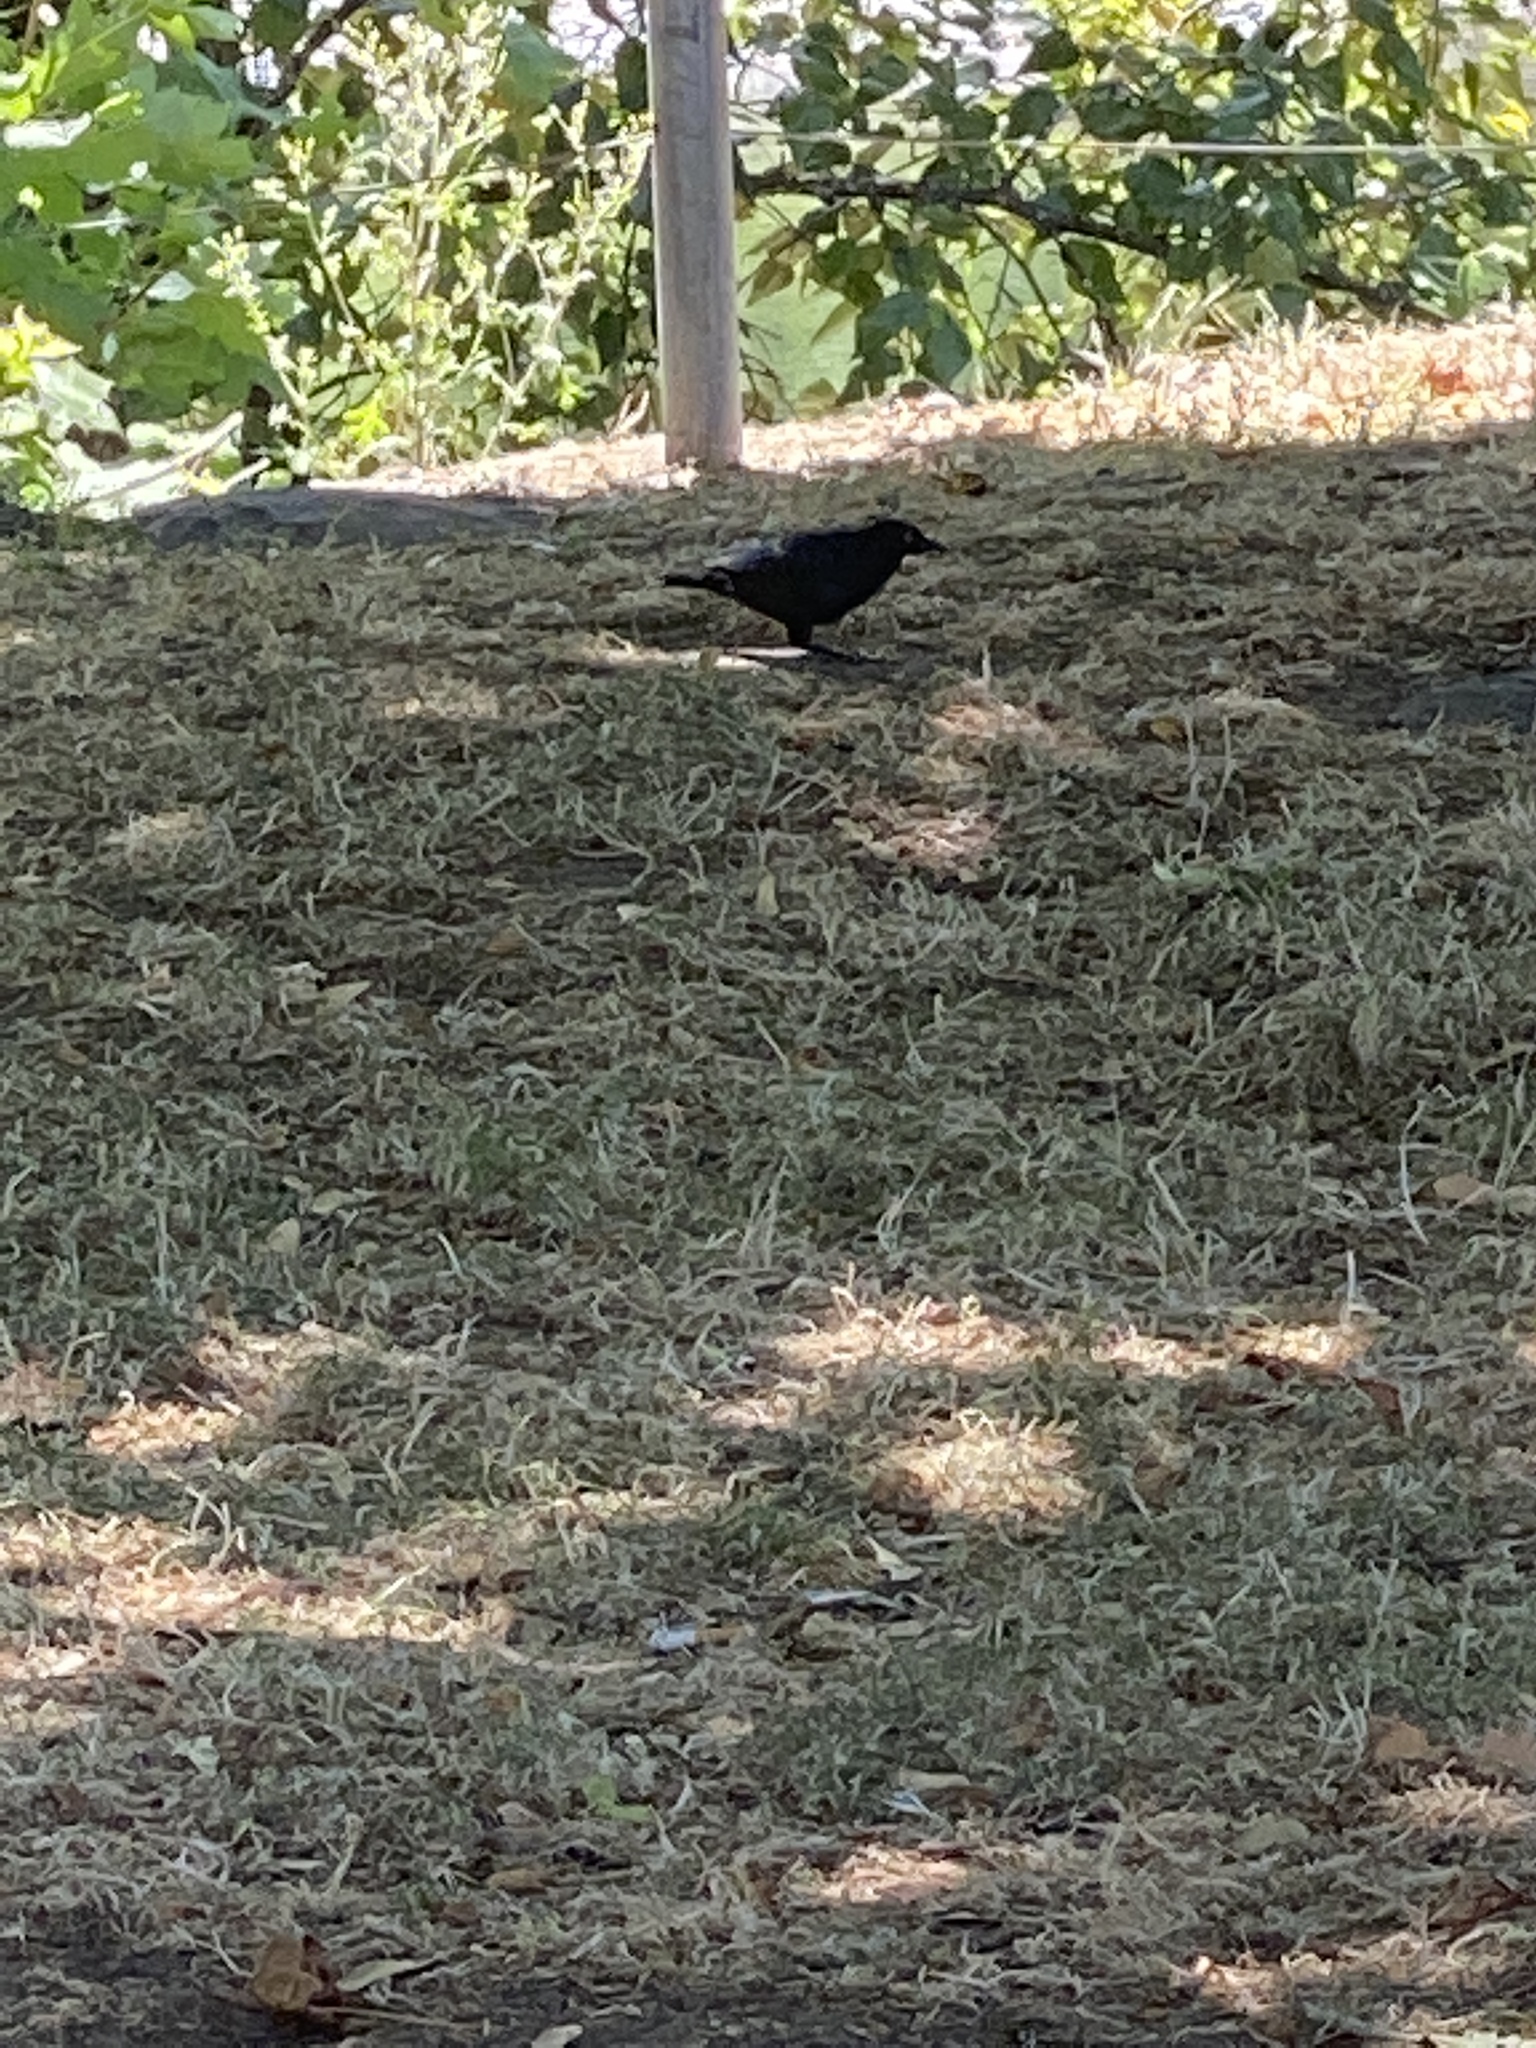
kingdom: Animalia
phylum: Chordata
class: Aves
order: Passeriformes
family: Icteridae
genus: Euphagus
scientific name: Euphagus cyanocephalus
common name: Brewer's blackbird
